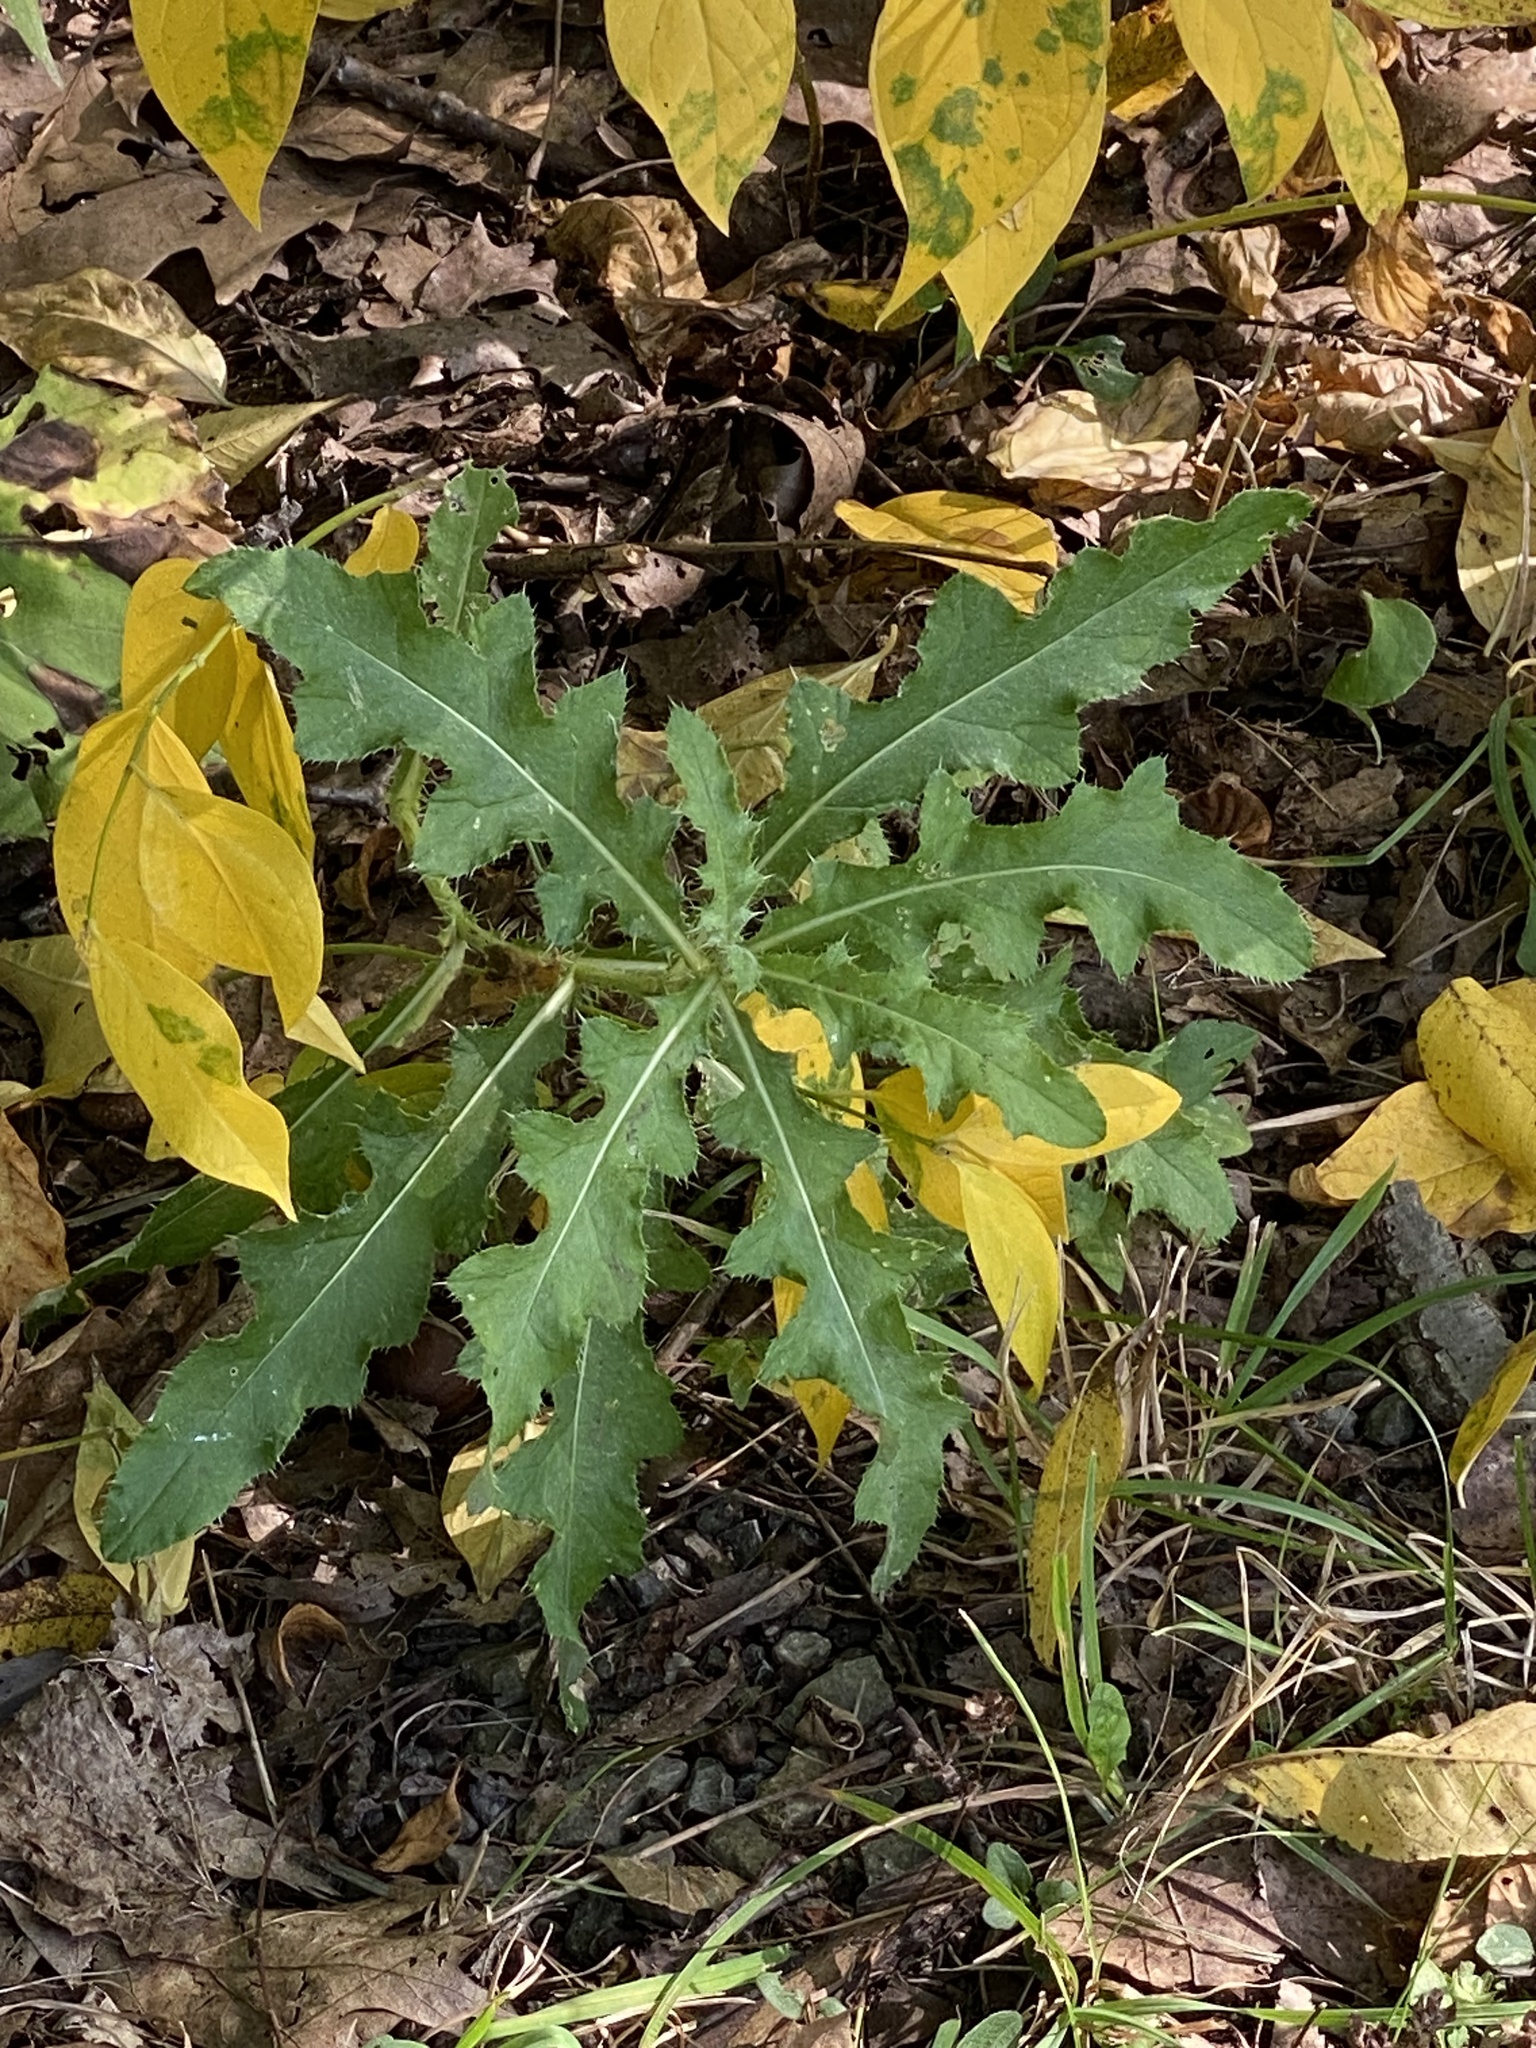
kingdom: Plantae
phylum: Tracheophyta
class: Magnoliopsida
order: Asterales
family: Asteraceae
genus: Cirsium
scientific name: Cirsium arvense
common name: Creeping thistle
